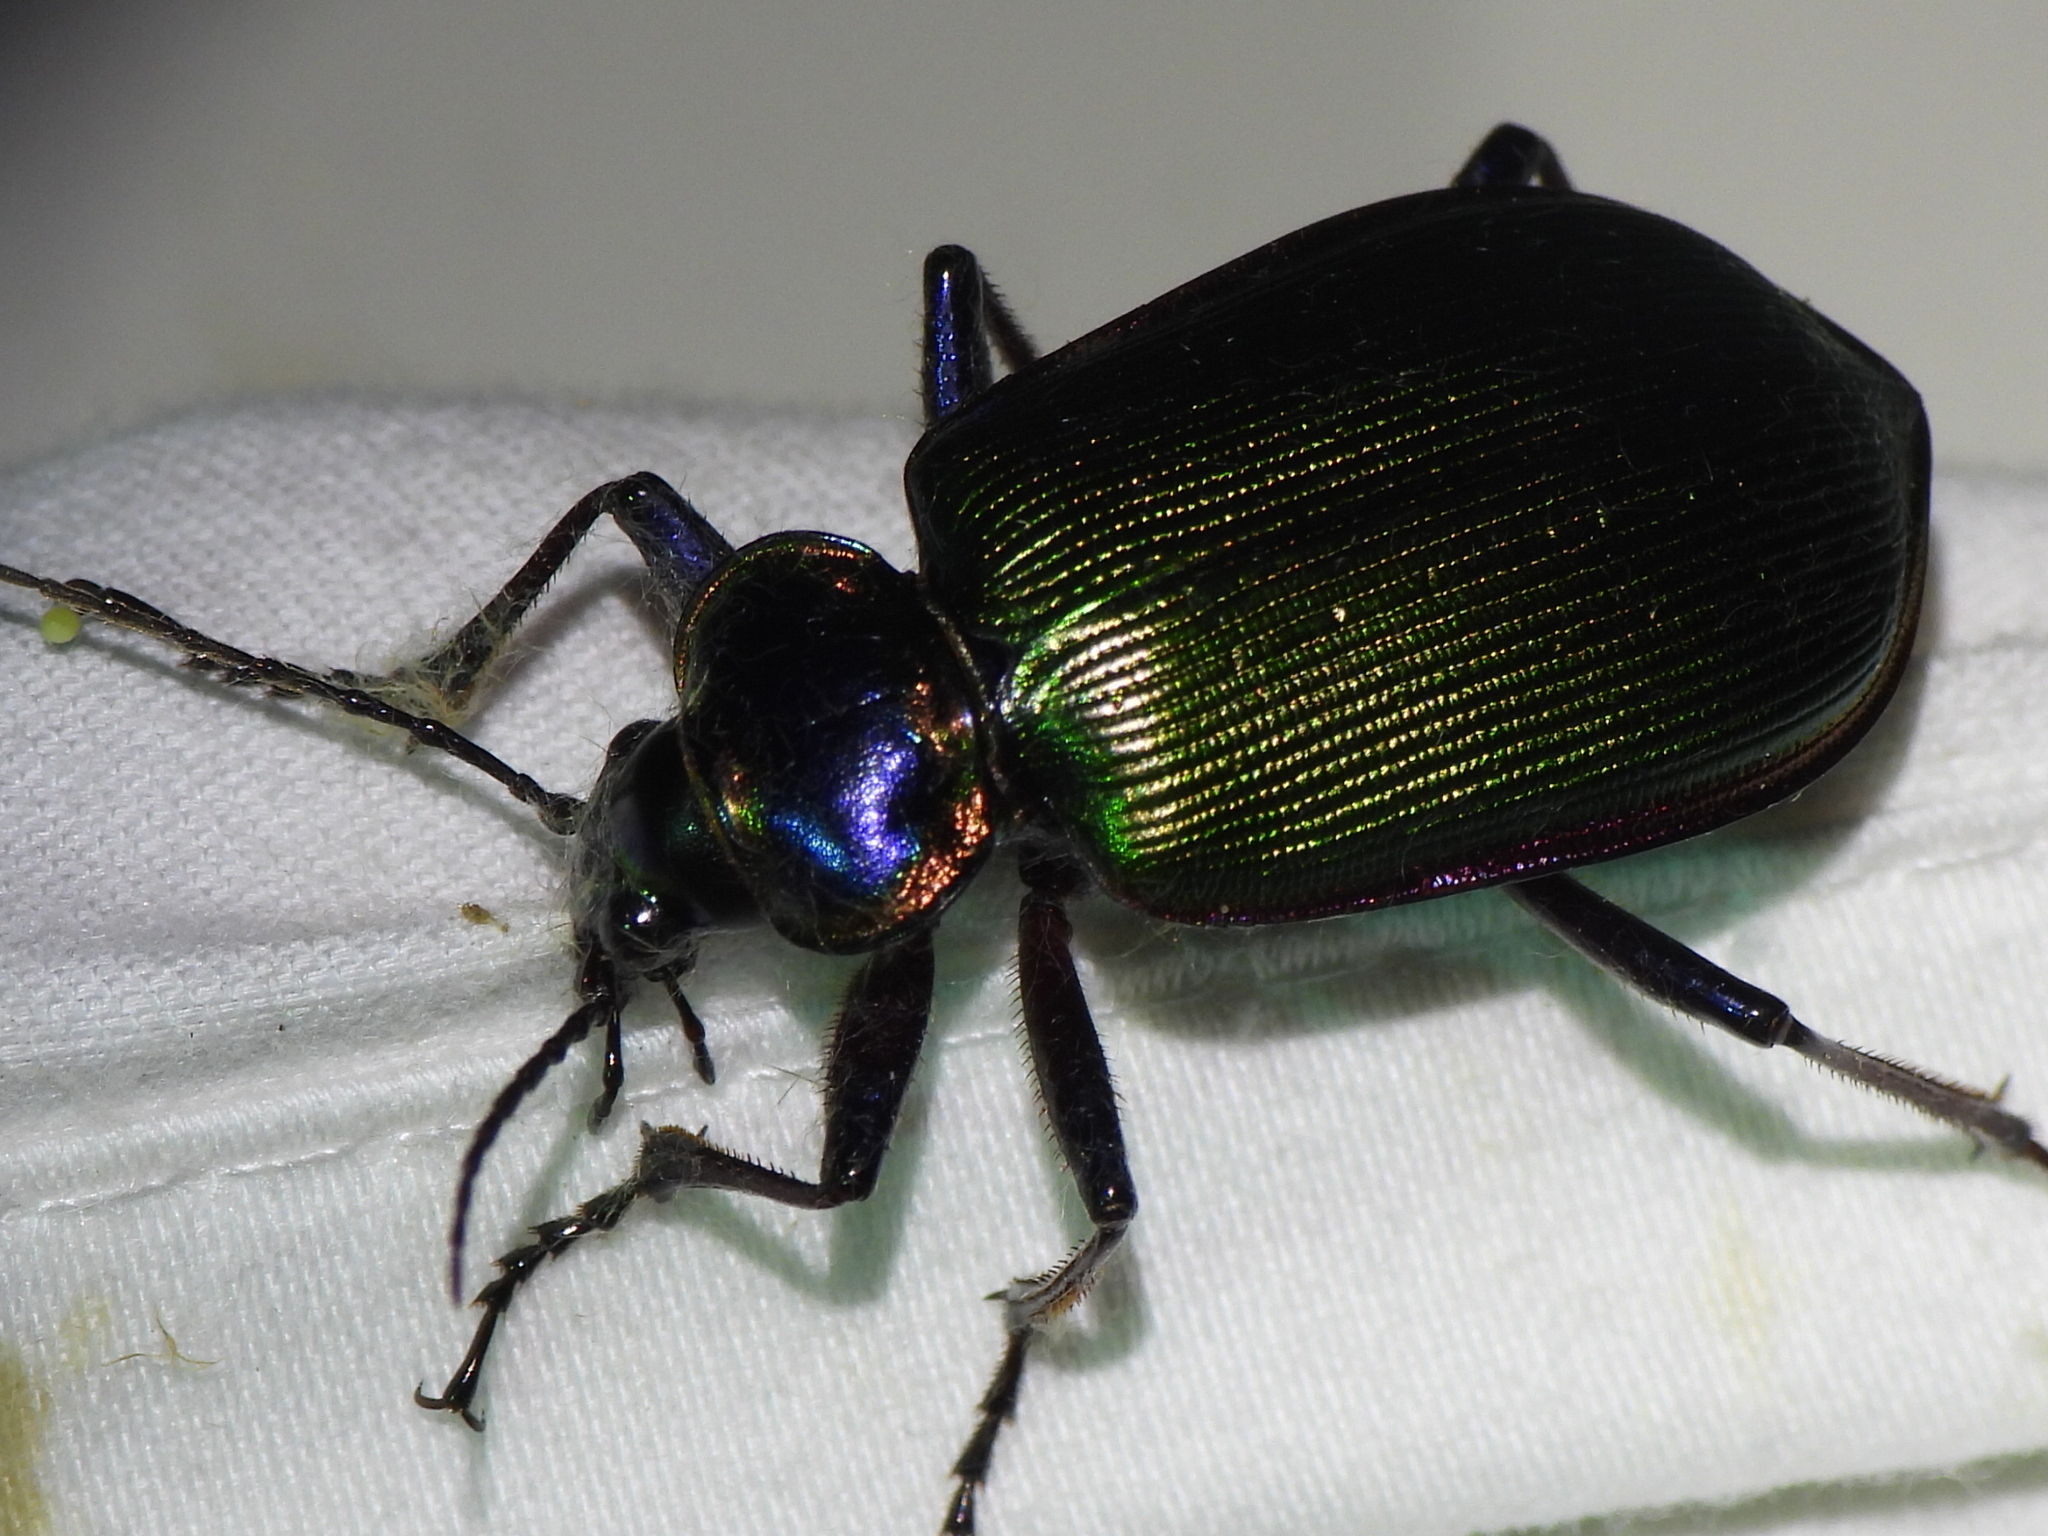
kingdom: Animalia
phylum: Arthropoda
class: Insecta
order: Coleoptera
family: Carabidae
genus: Calosoma
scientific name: Calosoma scrutator
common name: Fiery searcher beetle
